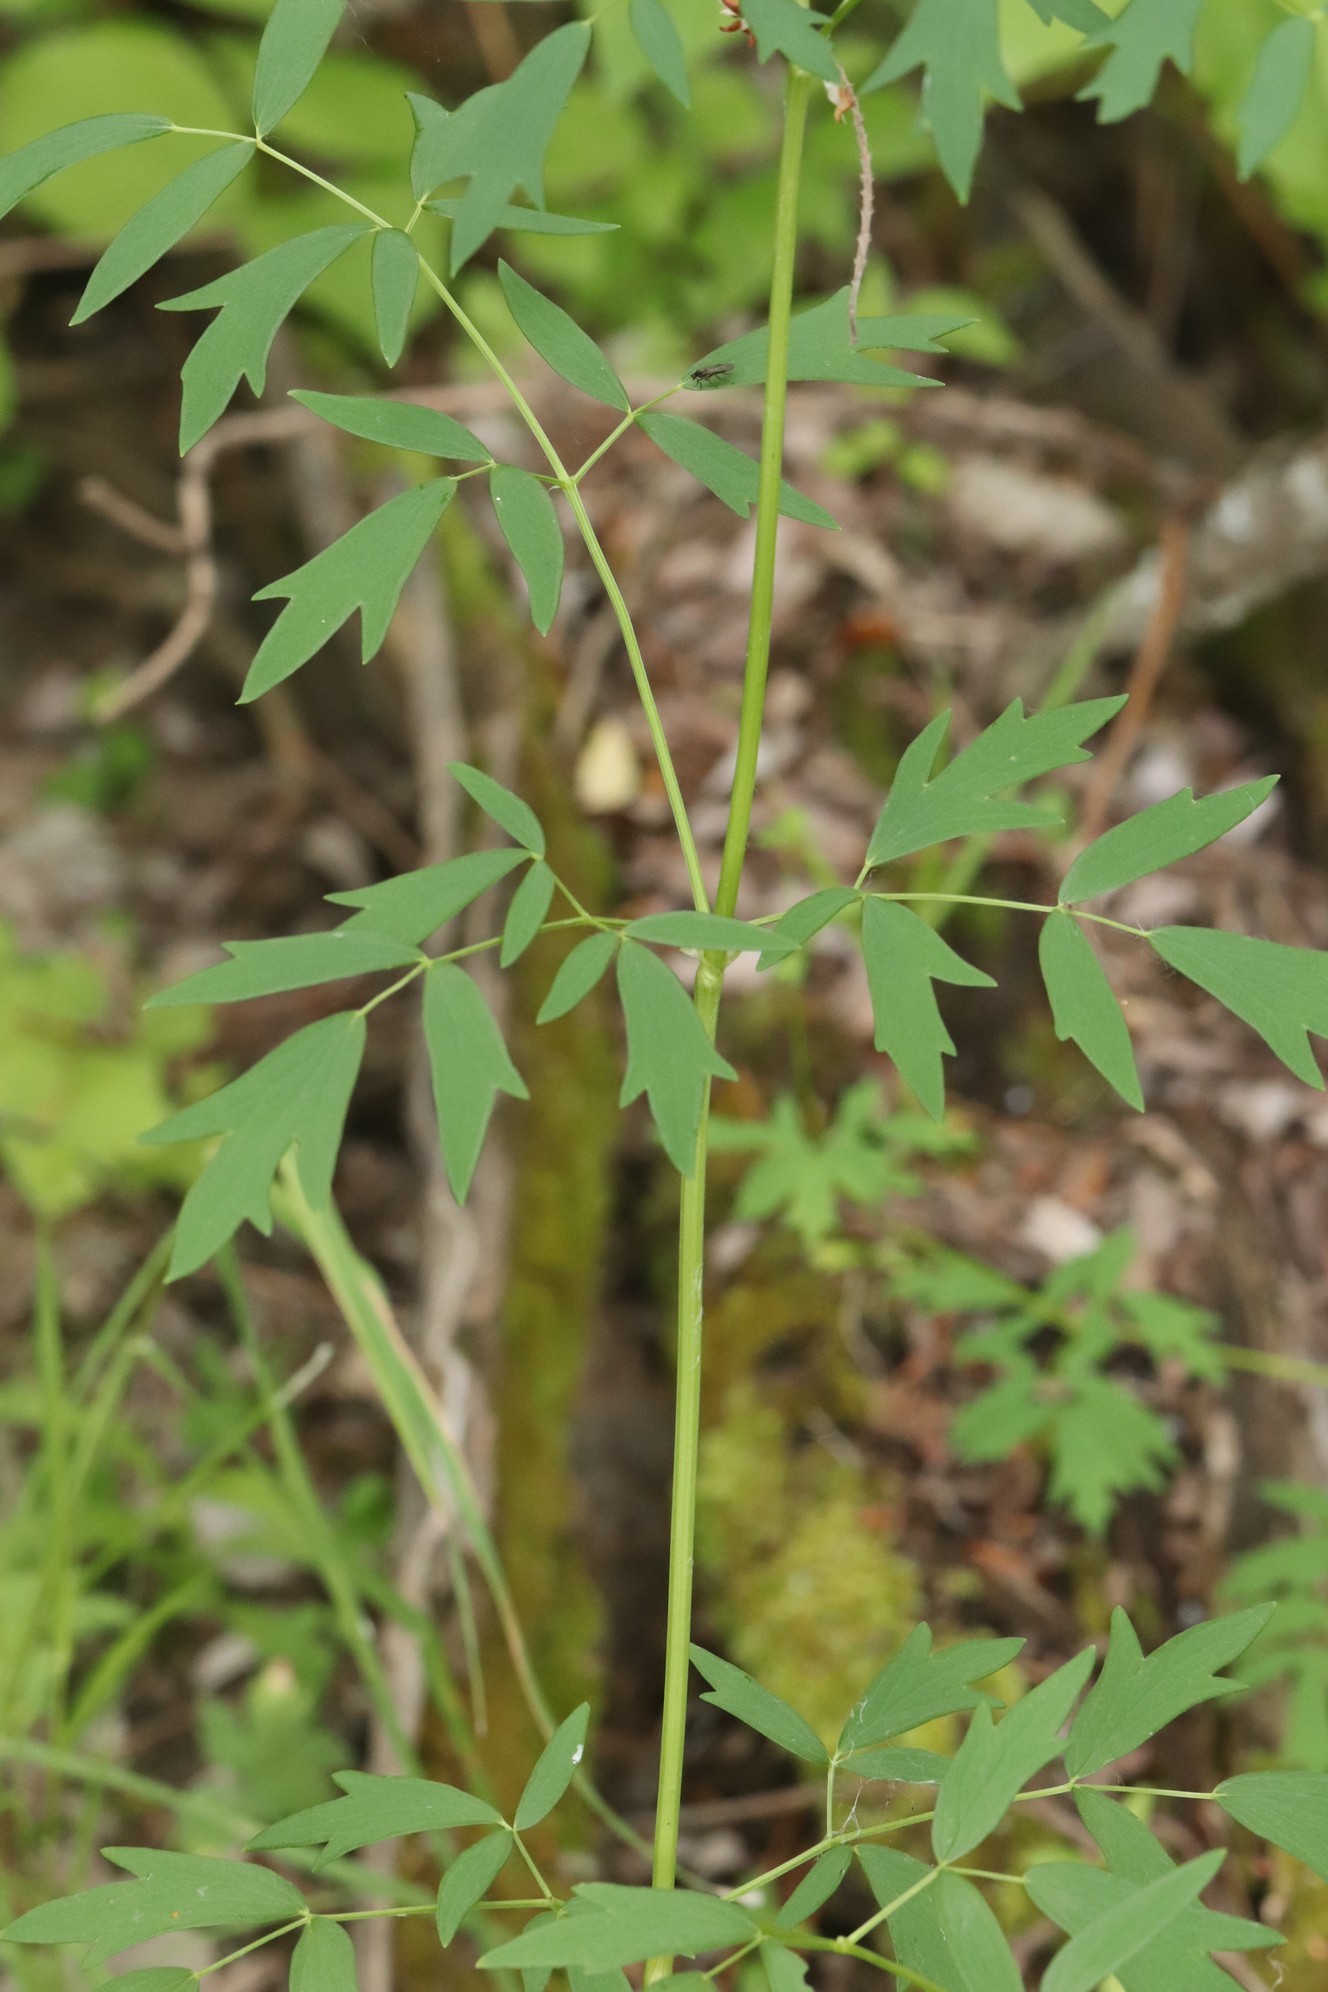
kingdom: Plantae
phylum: Tracheophyta
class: Magnoliopsida
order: Ranunculales
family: Ranunculaceae
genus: Thalictrum
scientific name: Thalictrum flavum
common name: Common meadow-rue
